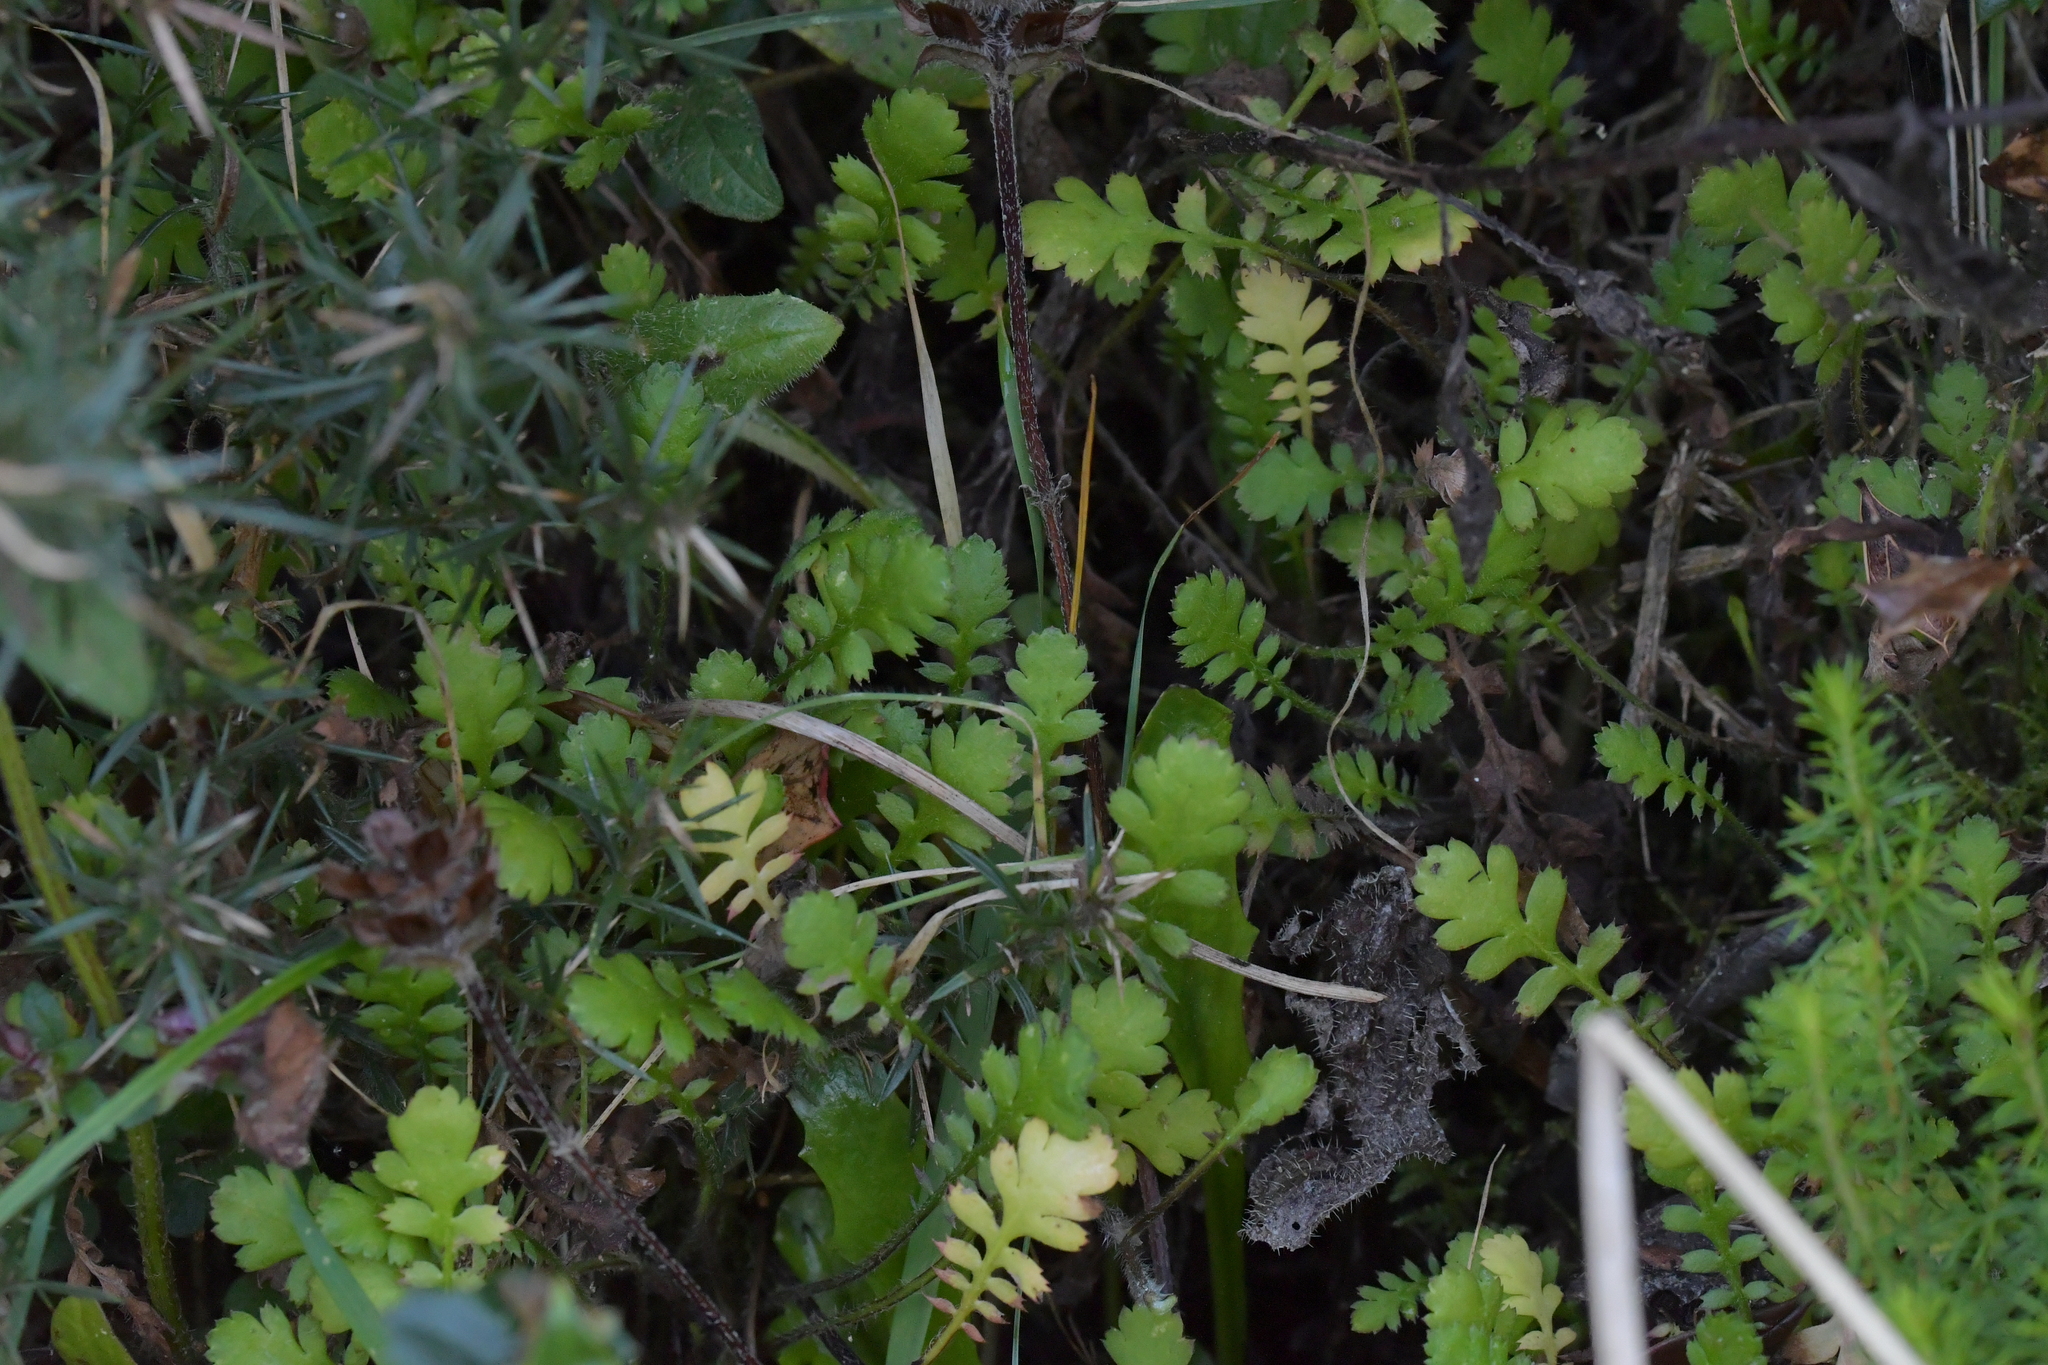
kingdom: Plantae
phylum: Tracheophyta
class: Magnoliopsida
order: Asterales
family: Asteraceae
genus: Leptinella
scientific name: Leptinella squalida
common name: New zealand brass-buttons
